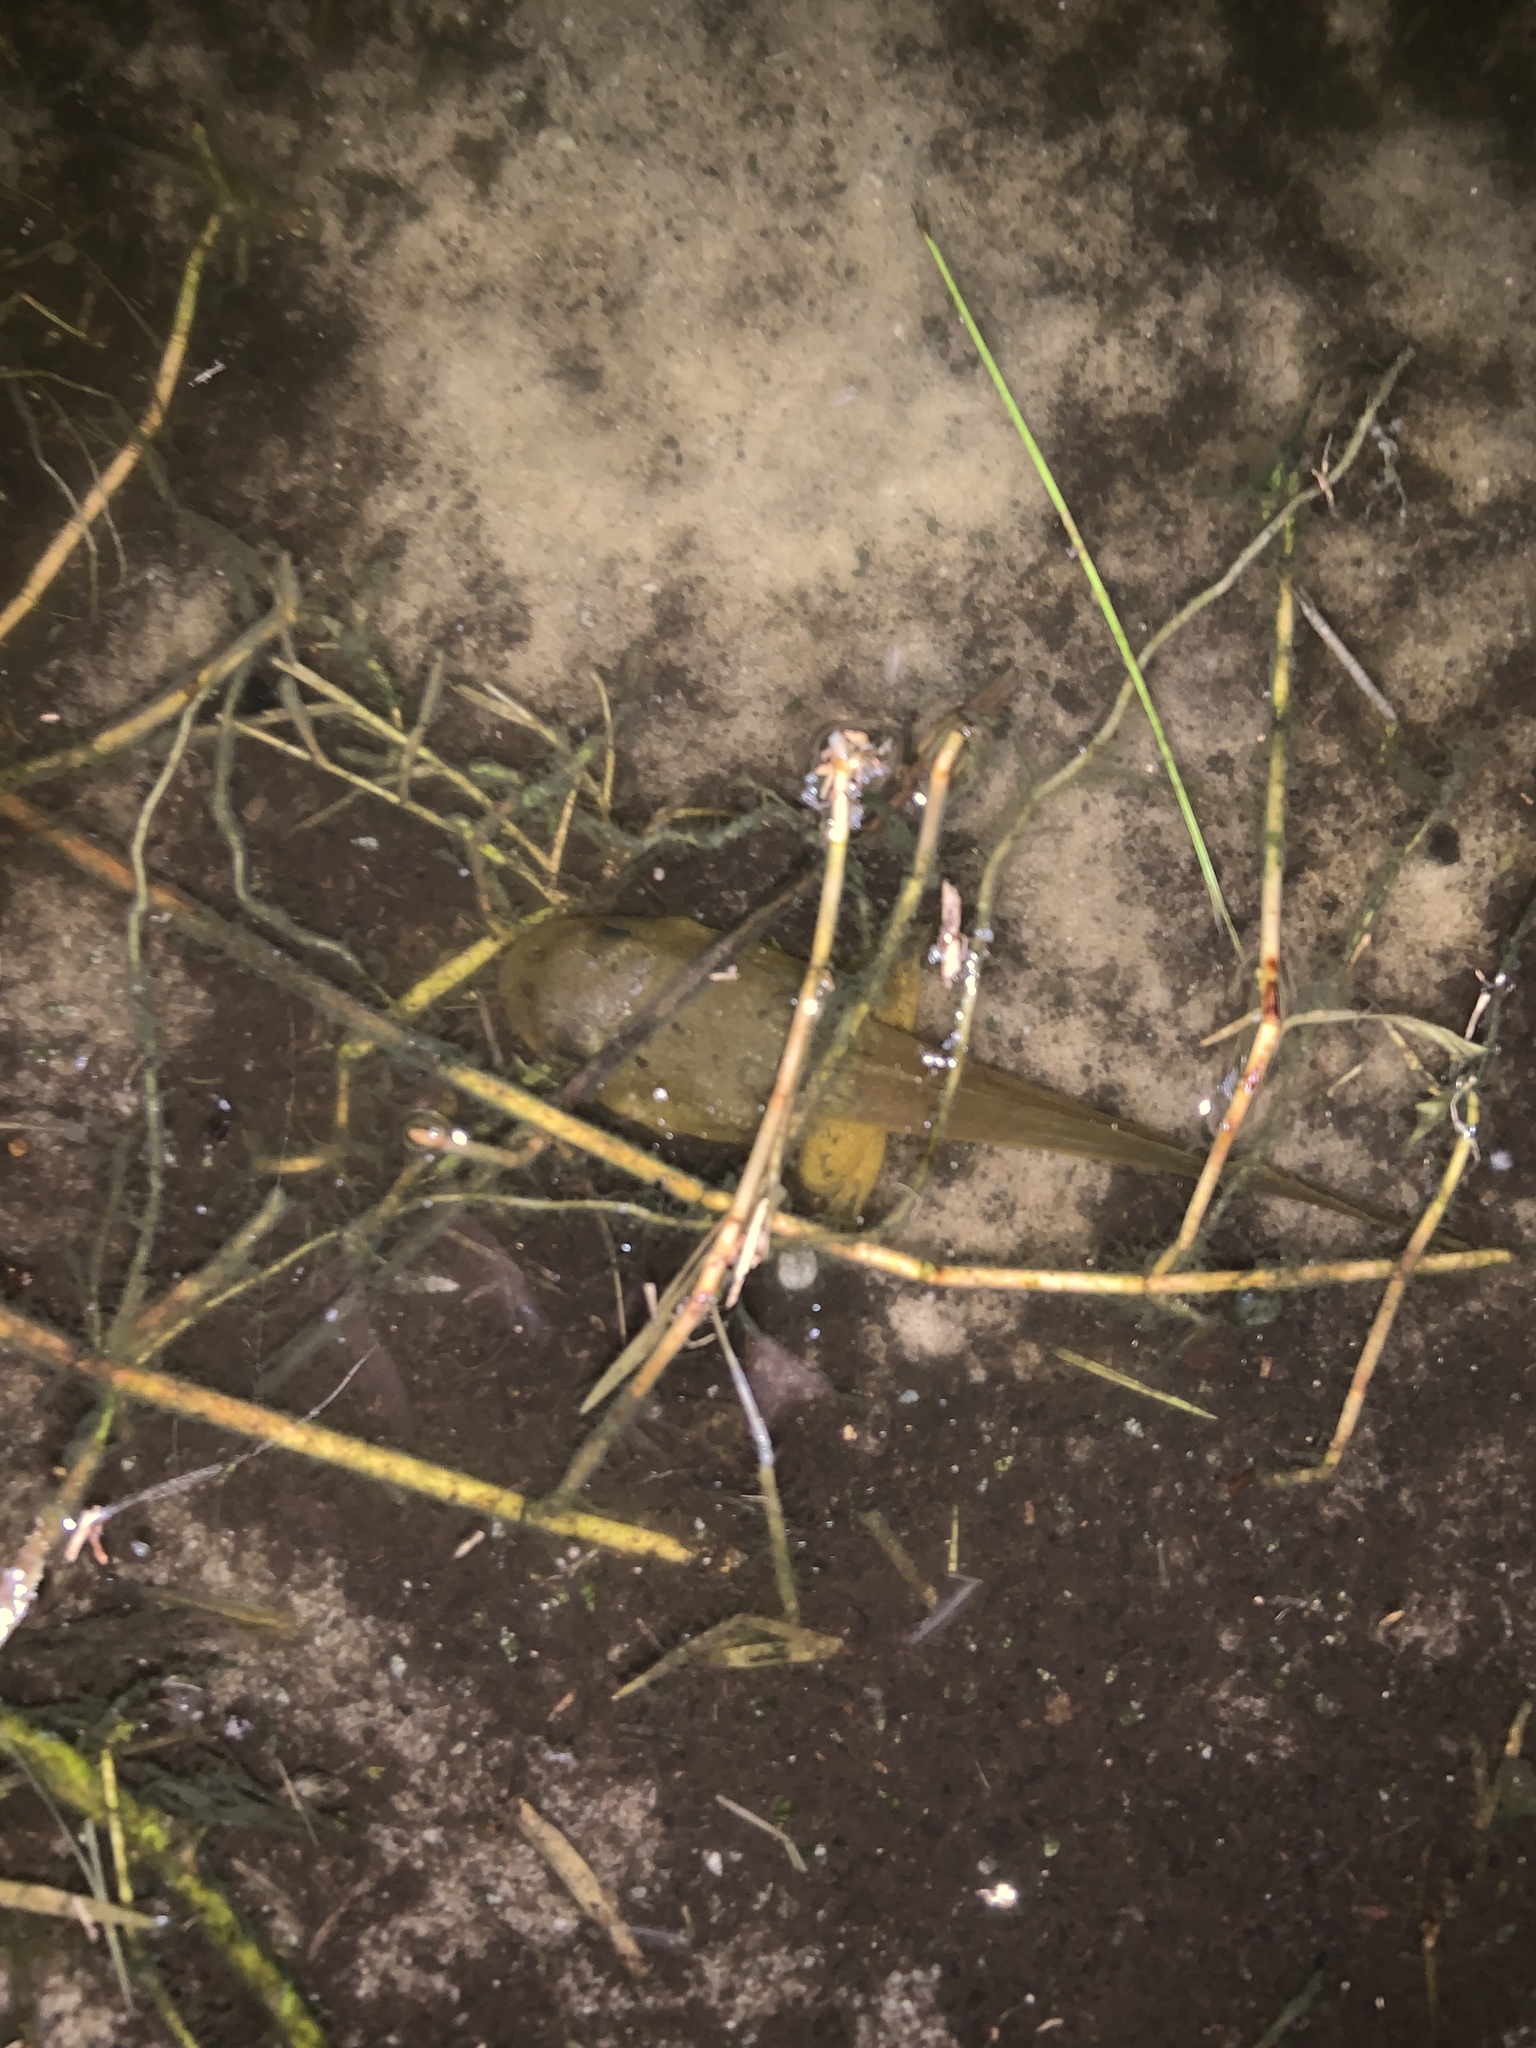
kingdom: Animalia
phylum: Chordata
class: Amphibia
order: Anura
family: Ranidae
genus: Lithobates
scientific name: Lithobates catesbeianus
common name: American bullfrog
